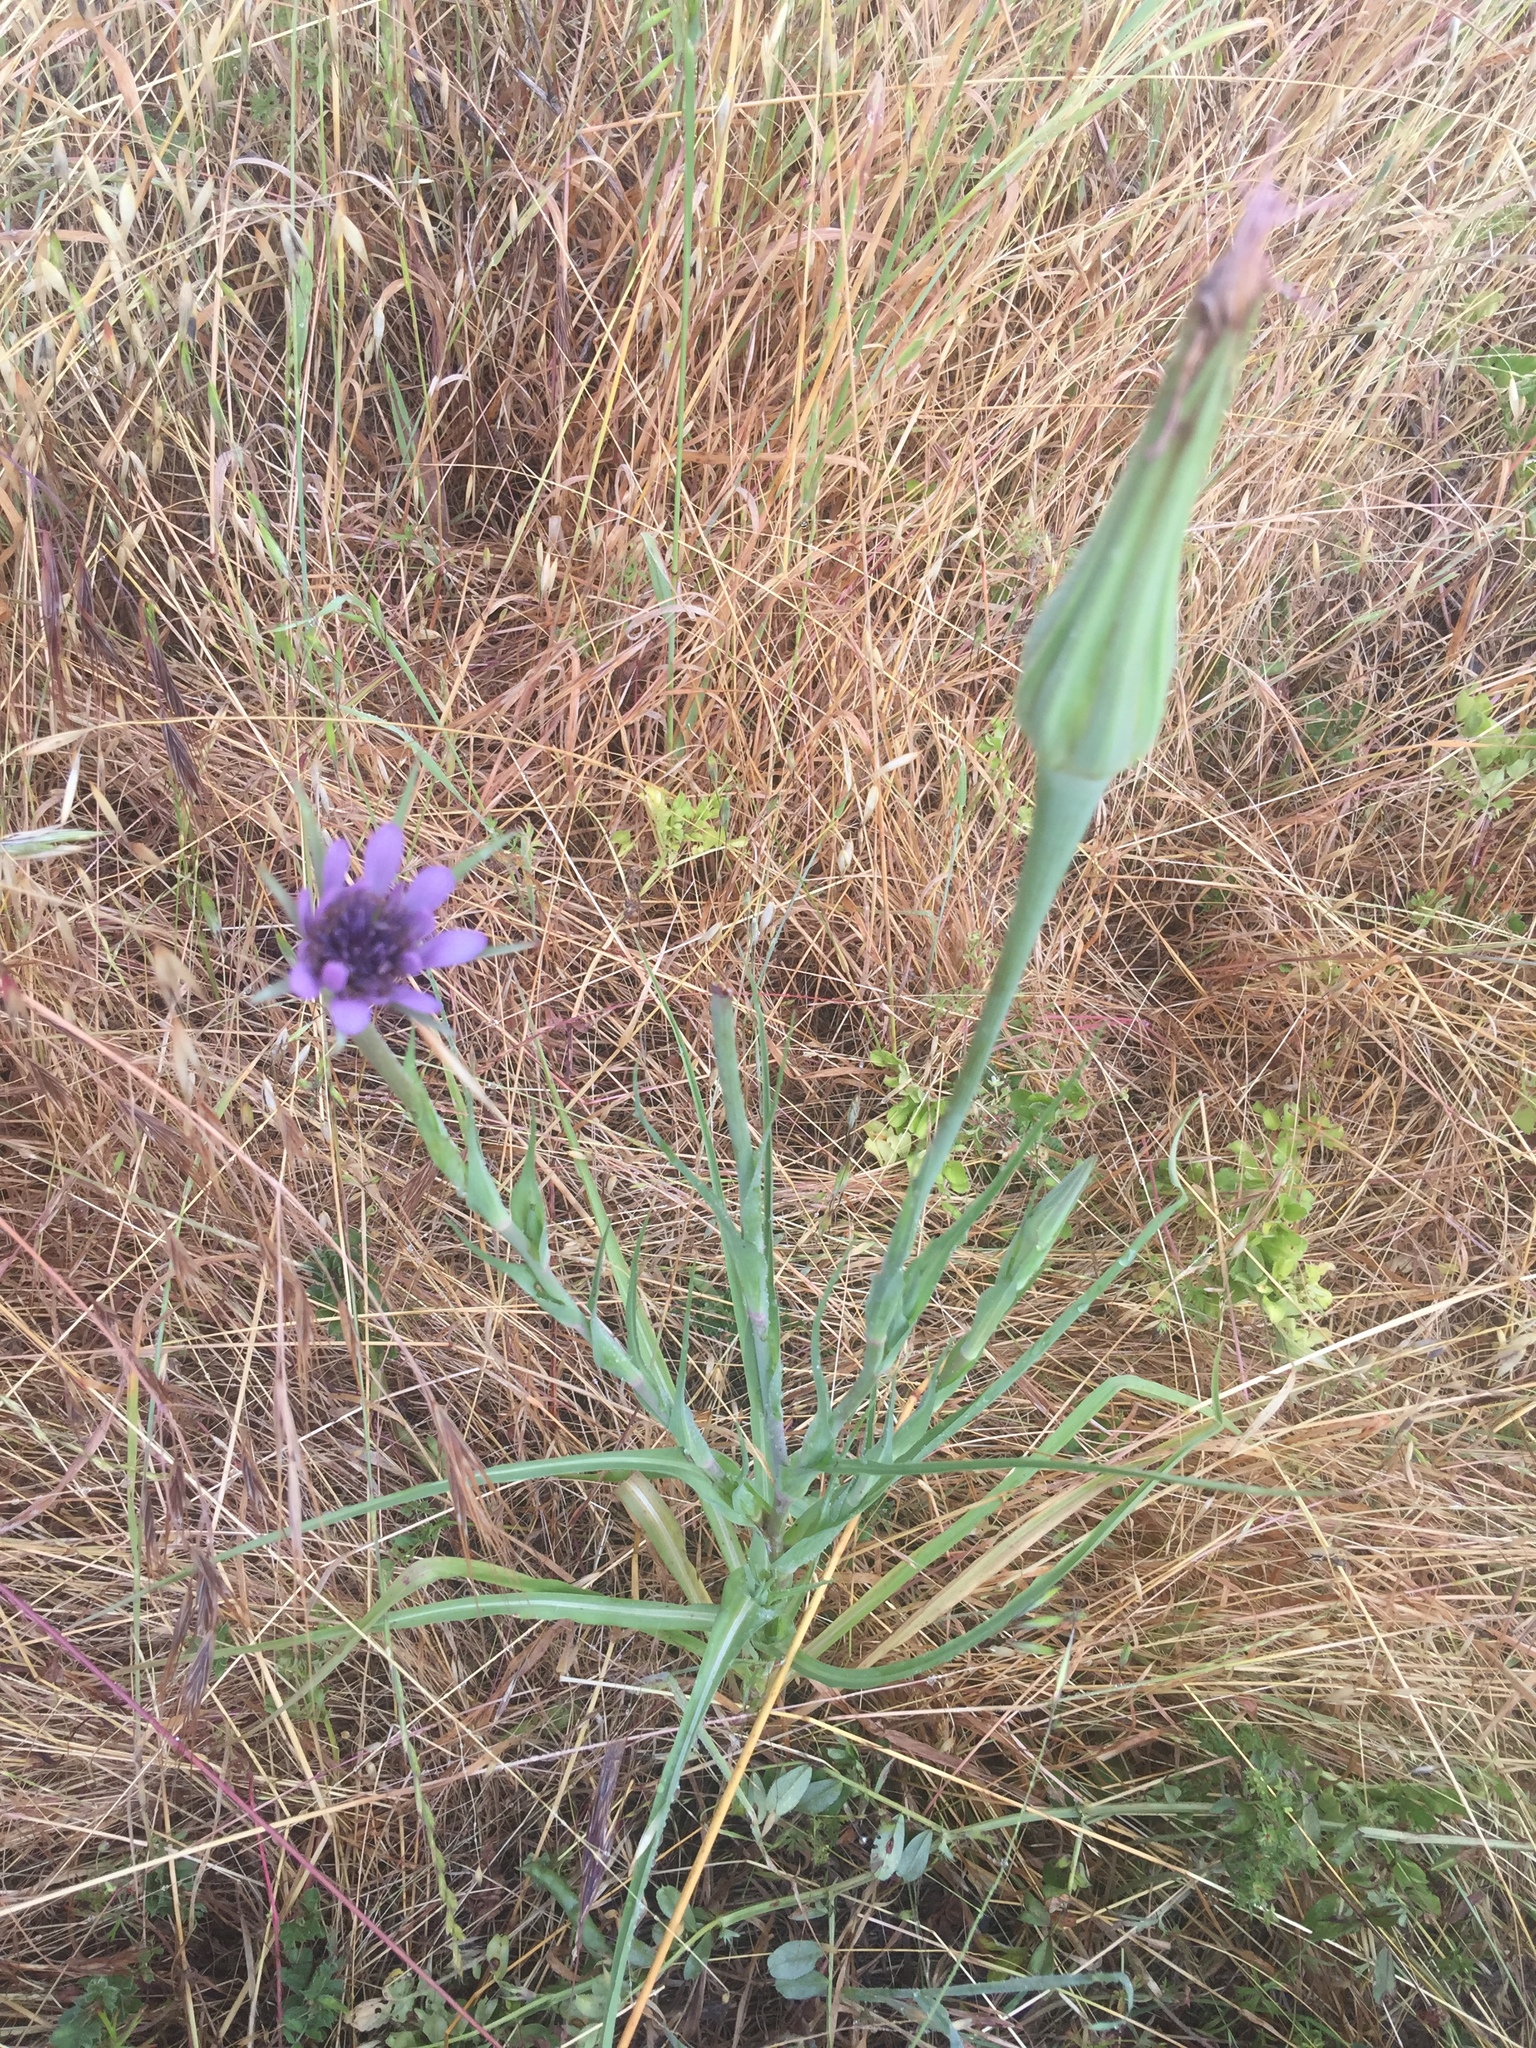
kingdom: Plantae
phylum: Tracheophyta
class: Magnoliopsida
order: Asterales
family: Asteraceae
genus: Tragopogon
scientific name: Tragopogon porrifolius
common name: Salsify
